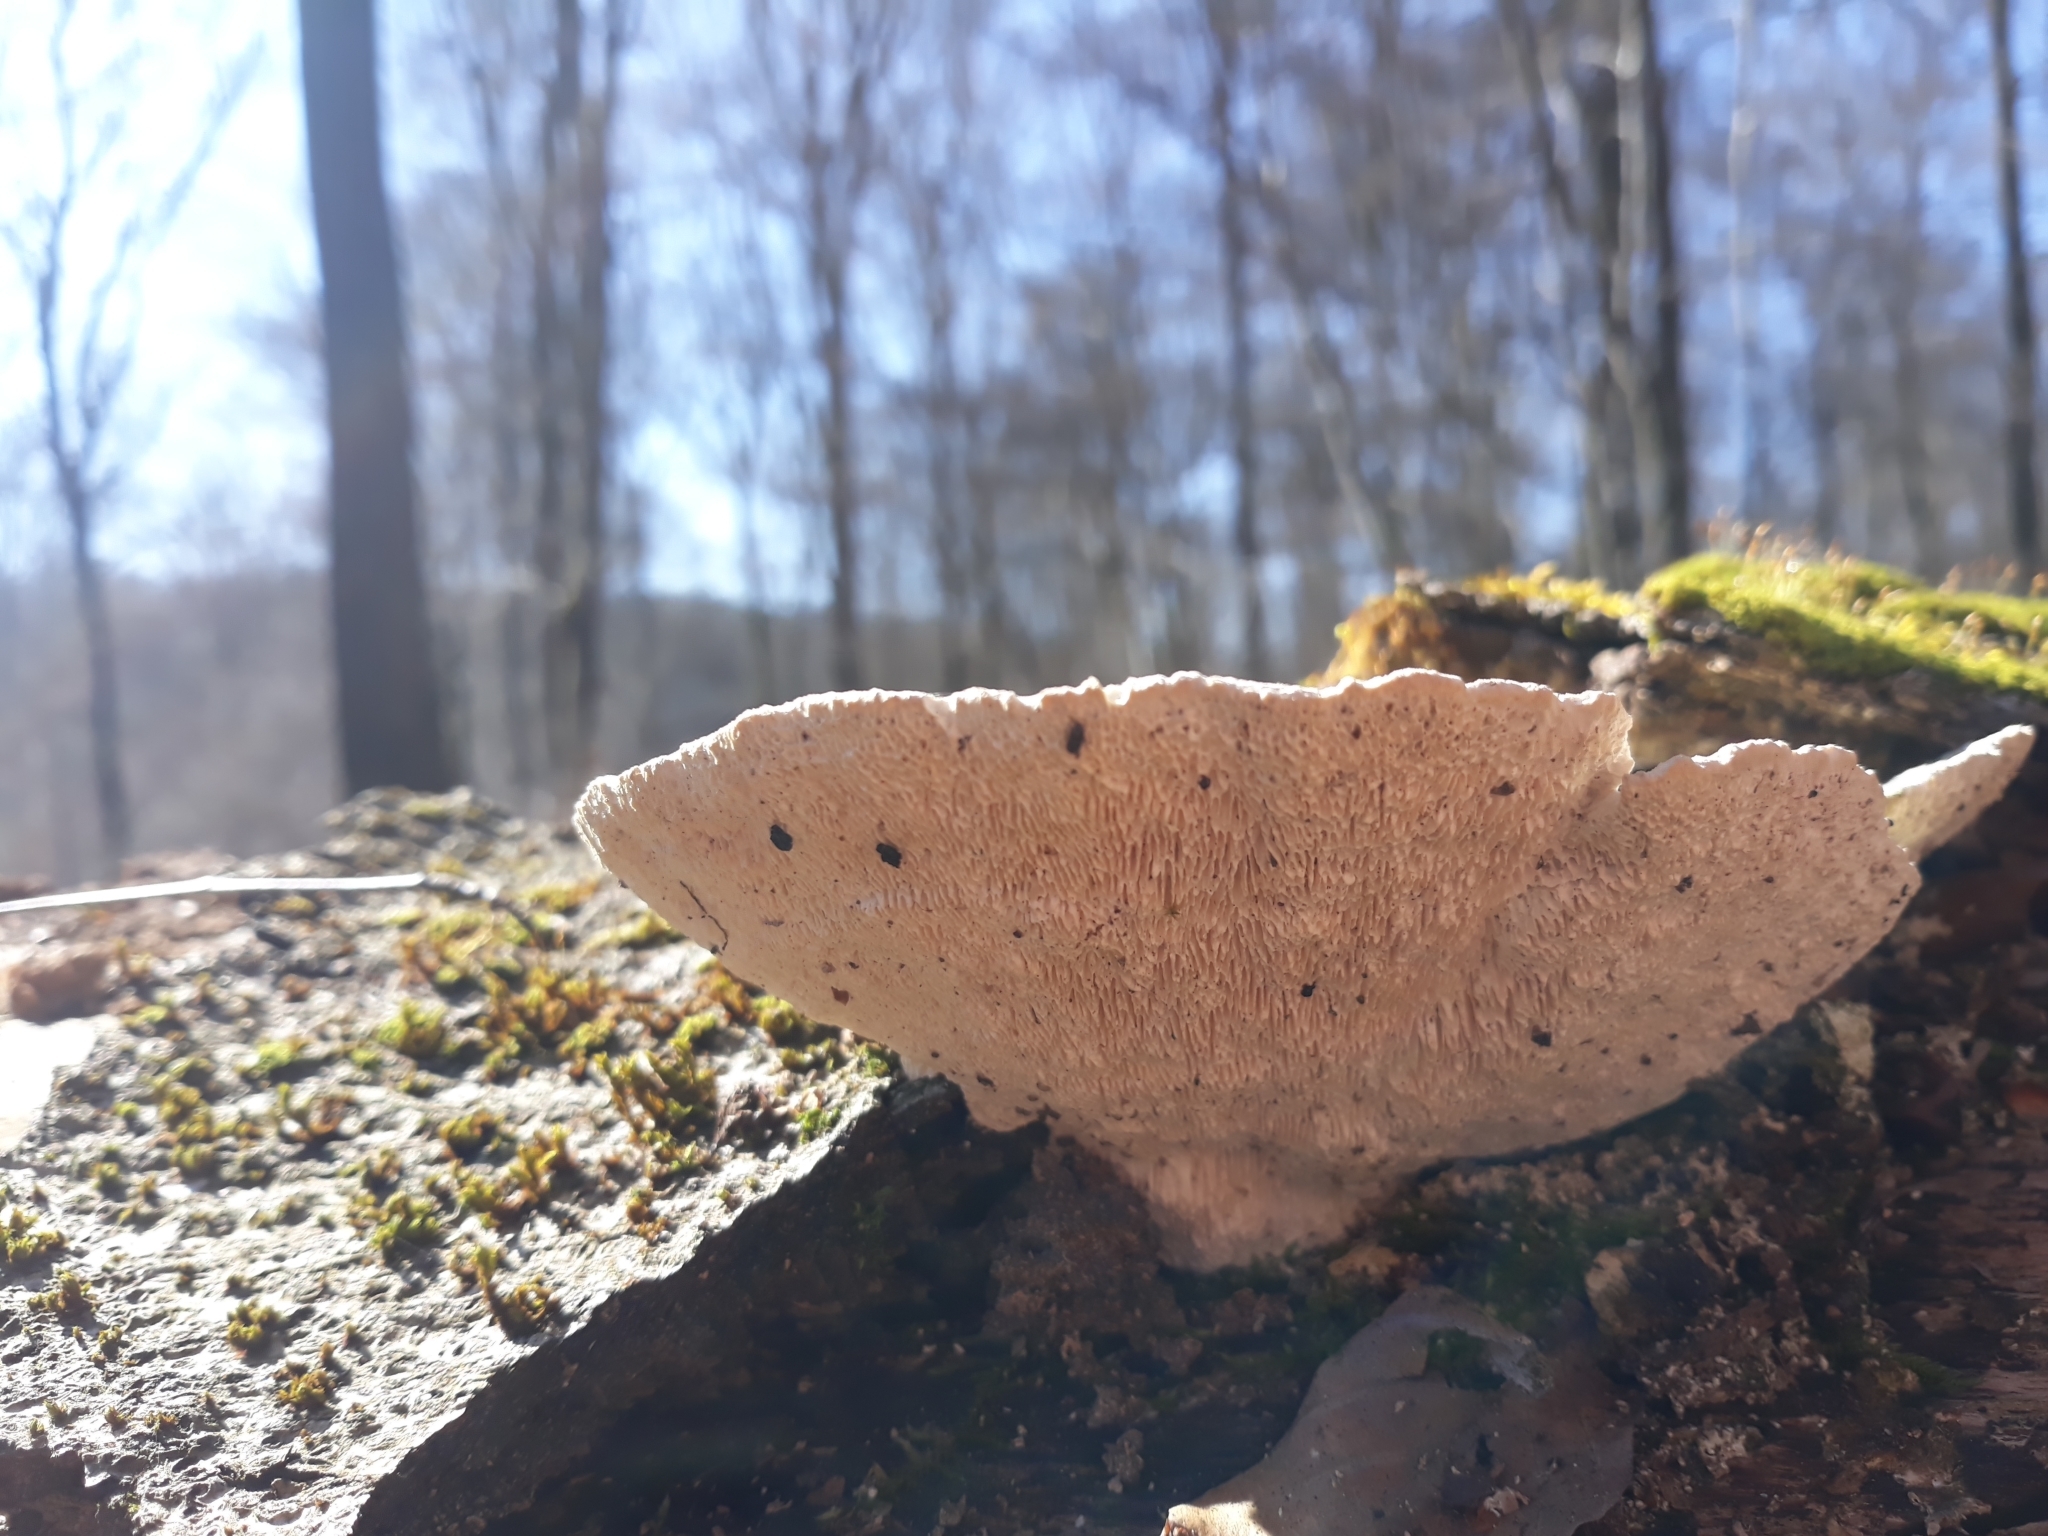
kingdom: Fungi
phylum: Basidiomycota
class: Agaricomycetes
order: Polyporales
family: Polyporaceae
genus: Trametes
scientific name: Trametes gibbosa
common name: Lumpy bracket
